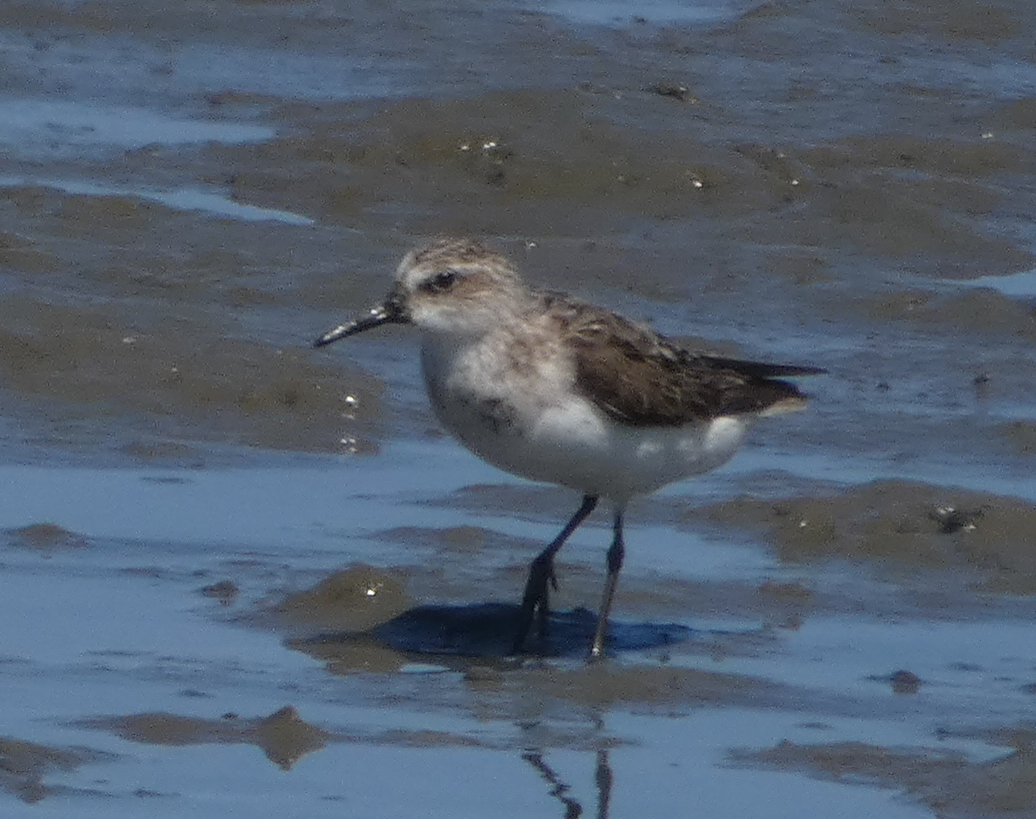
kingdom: Animalia
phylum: Chordata
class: Aves
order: Charadriiformes
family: Scolopacidae
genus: Calidris
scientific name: Calidris pusilla
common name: Semipalmated sandpiper
